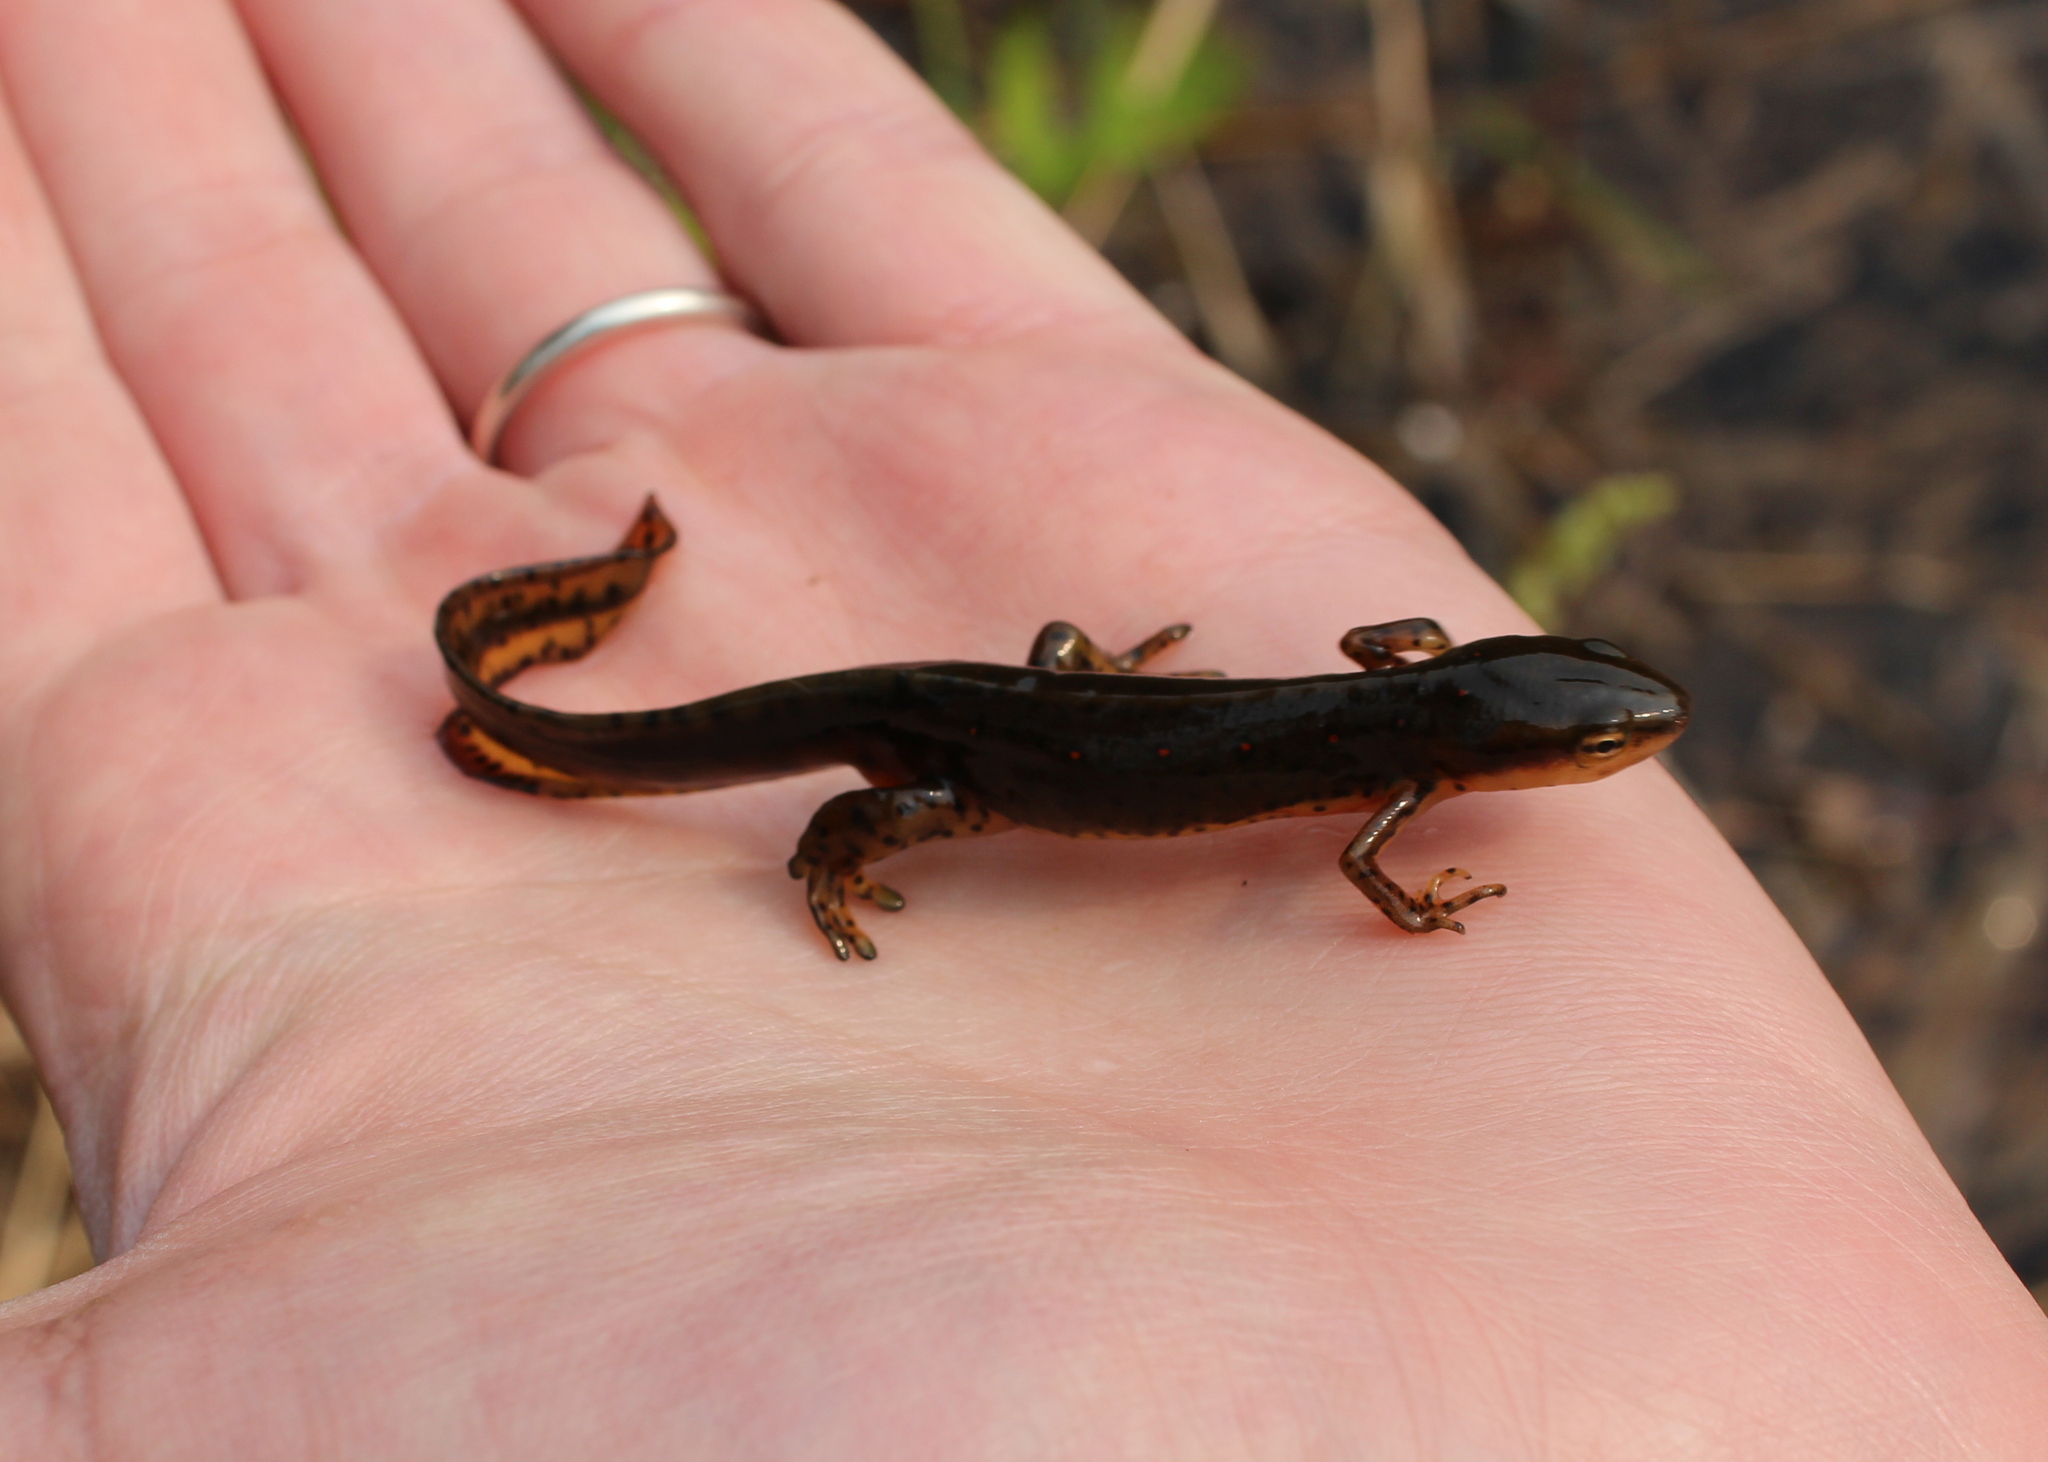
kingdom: Animalia
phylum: Chordata
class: Amphibia
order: Caudata
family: Salamandridae
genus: Notophthalmus
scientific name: Notophthalmus viridescens
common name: Eastern newt
